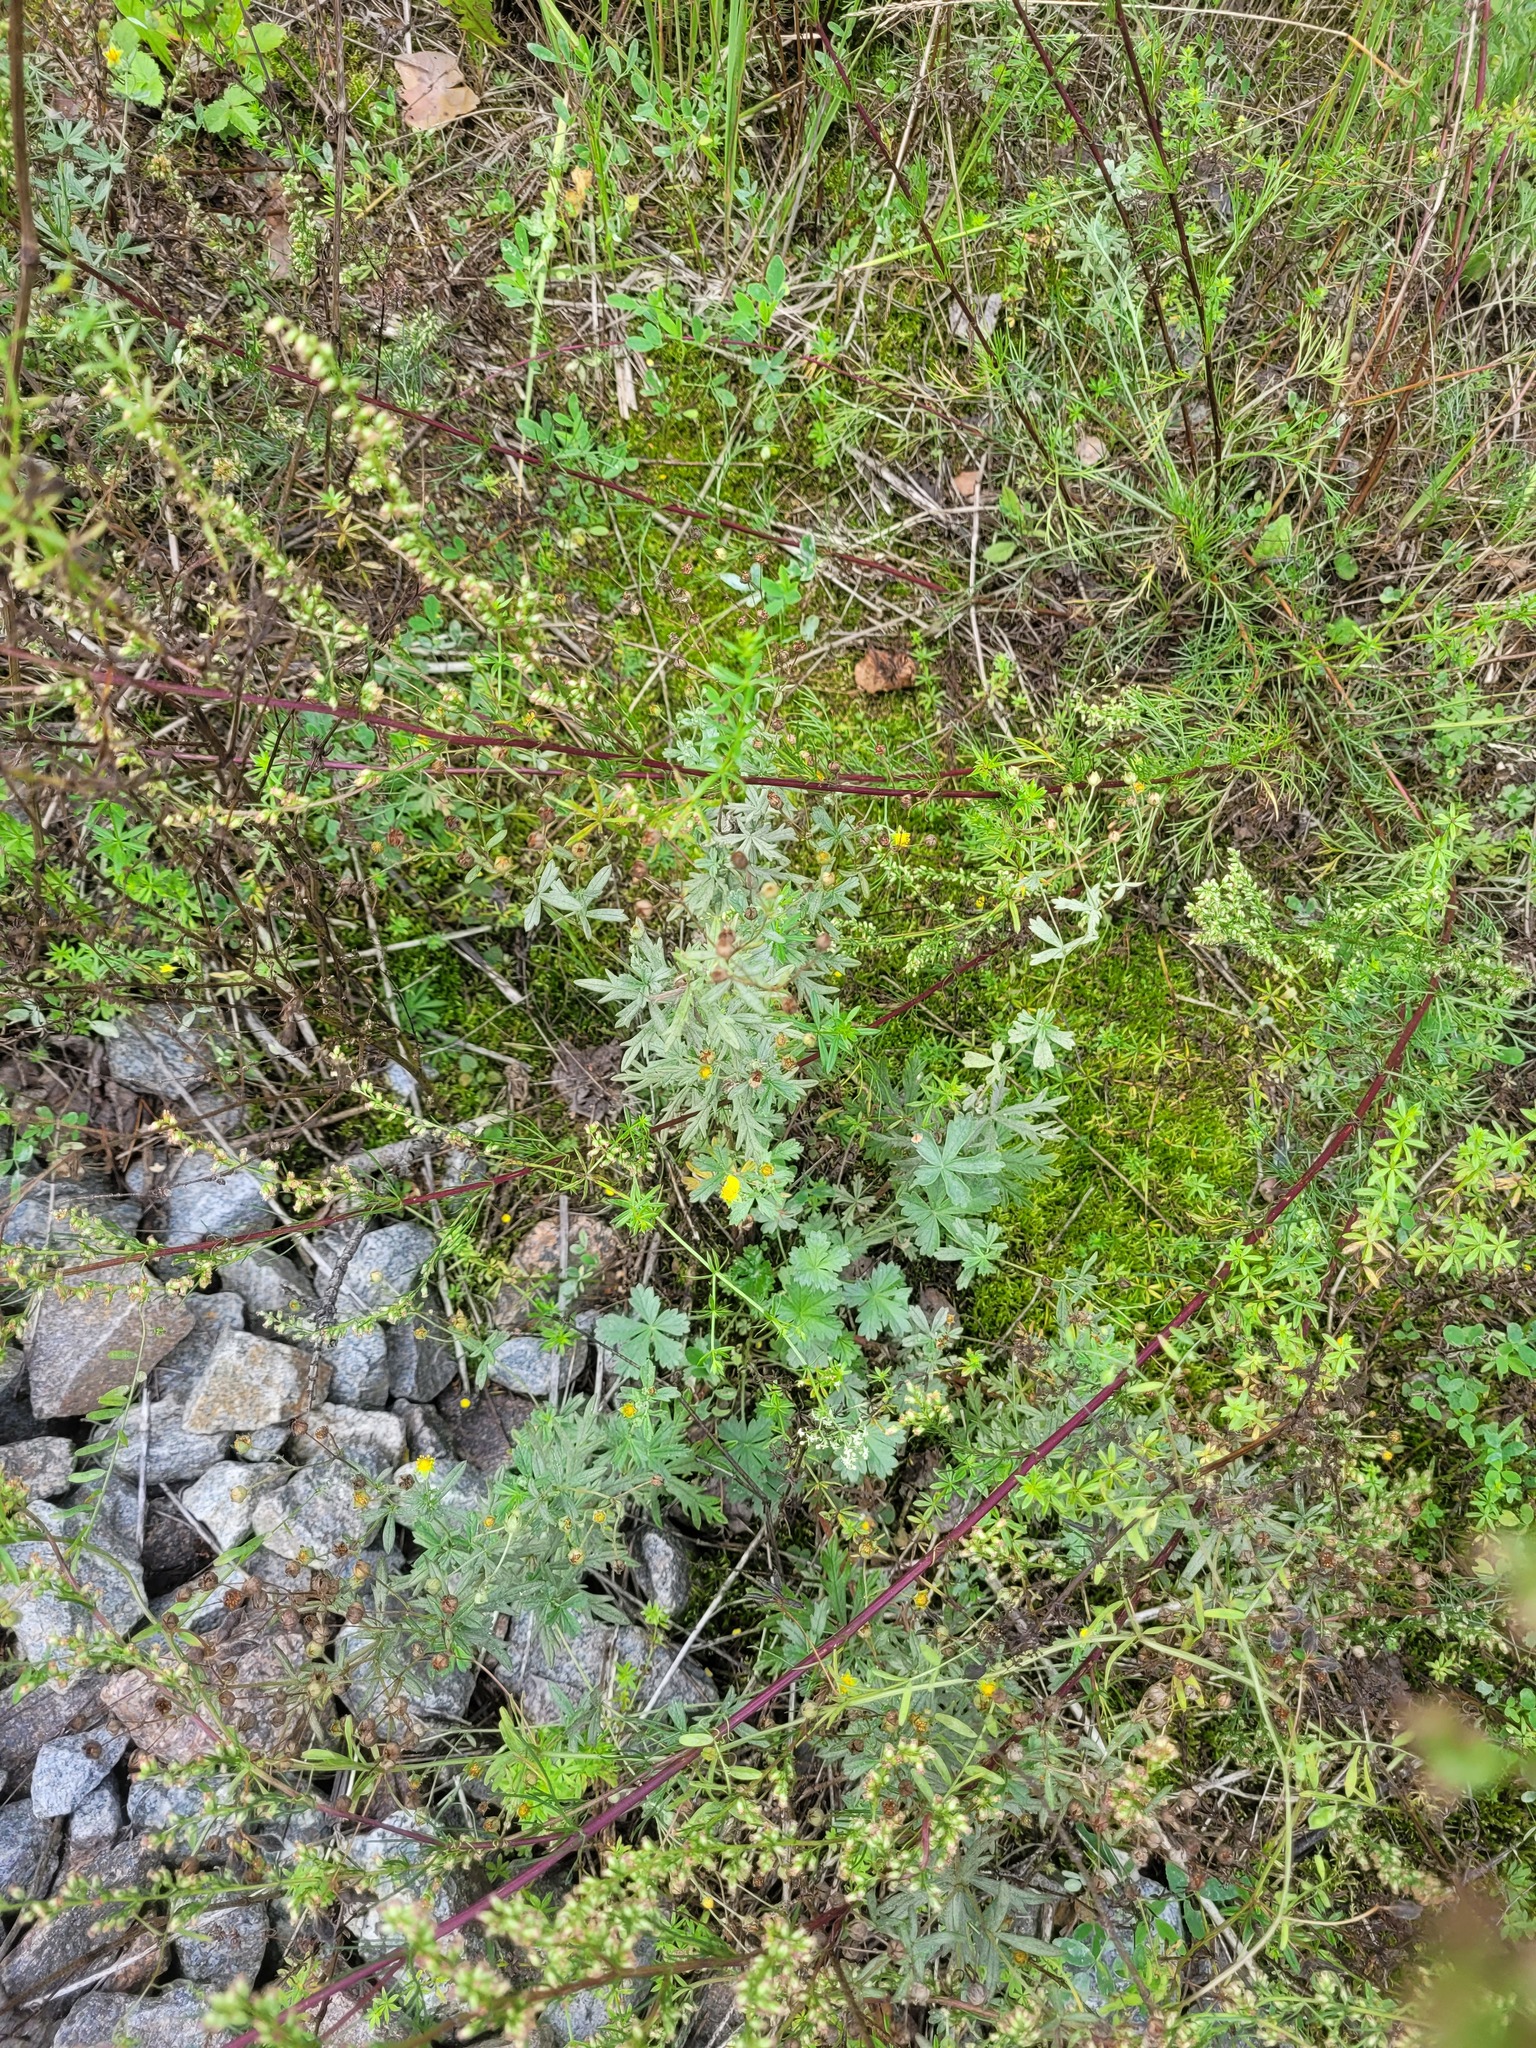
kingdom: Plantae
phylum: Tracheophyta
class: Magnoliopsida
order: Rosales
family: Rosaceae
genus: Potentilla
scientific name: Potentilla argentea
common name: Hoary cinquefoil
